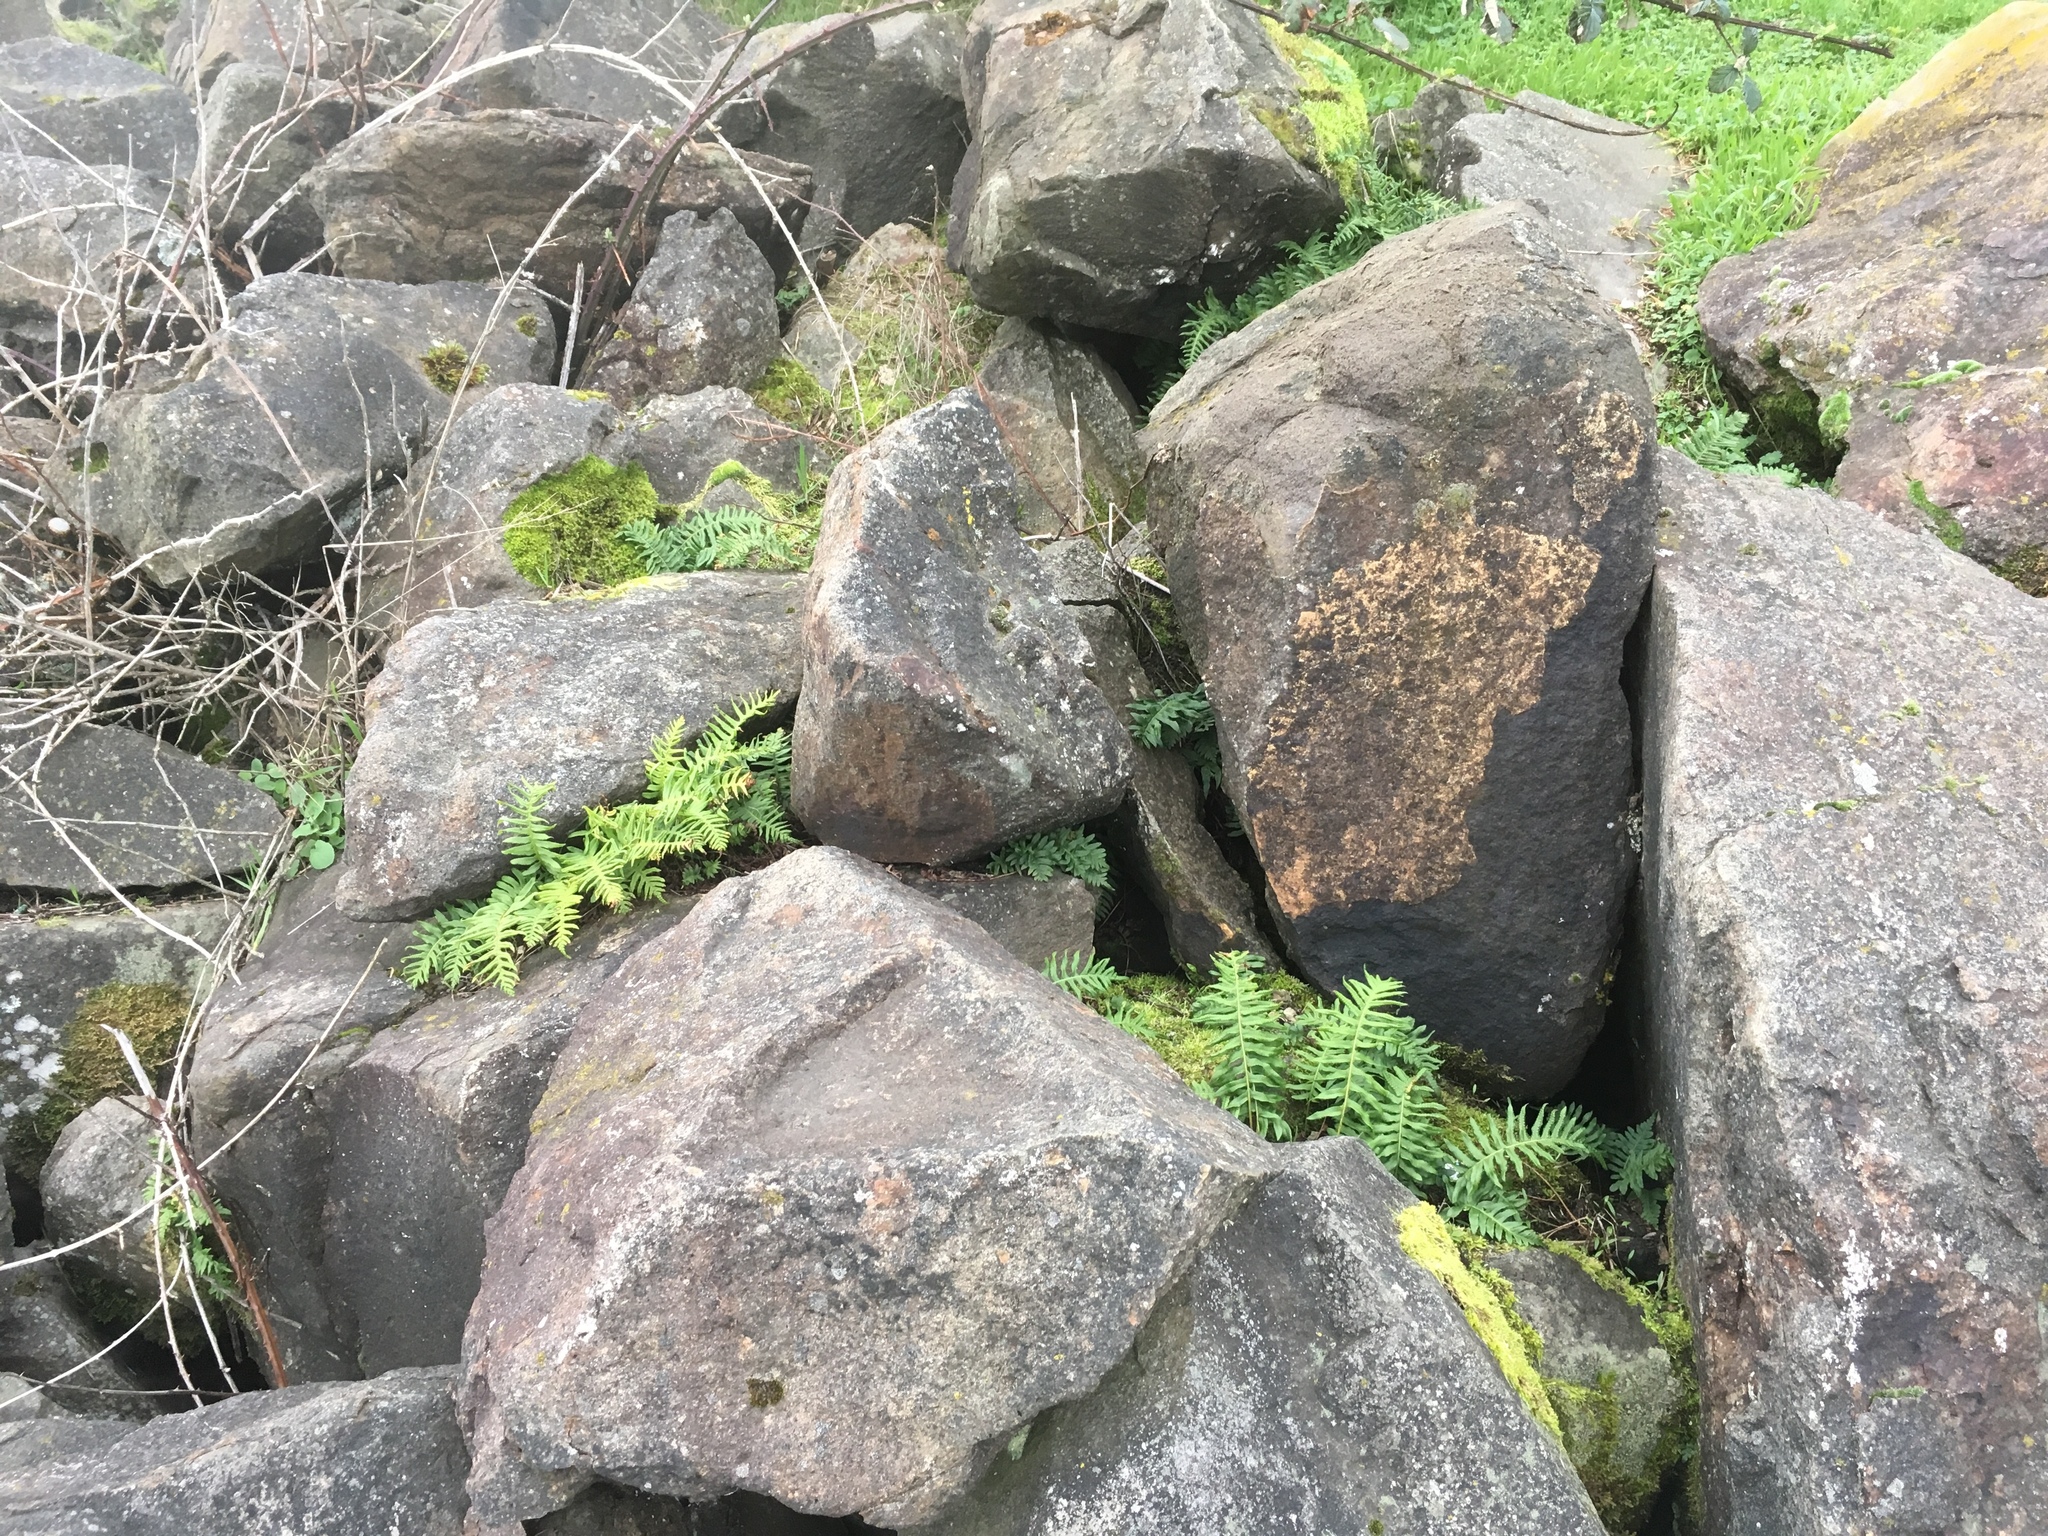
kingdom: Plantae
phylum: Tracheophyta
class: Polypodiopsida
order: Polypodiales
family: Polypodiaceae
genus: Polypodium
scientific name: Polypodium glycyrrhiza
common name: Licorice fern
